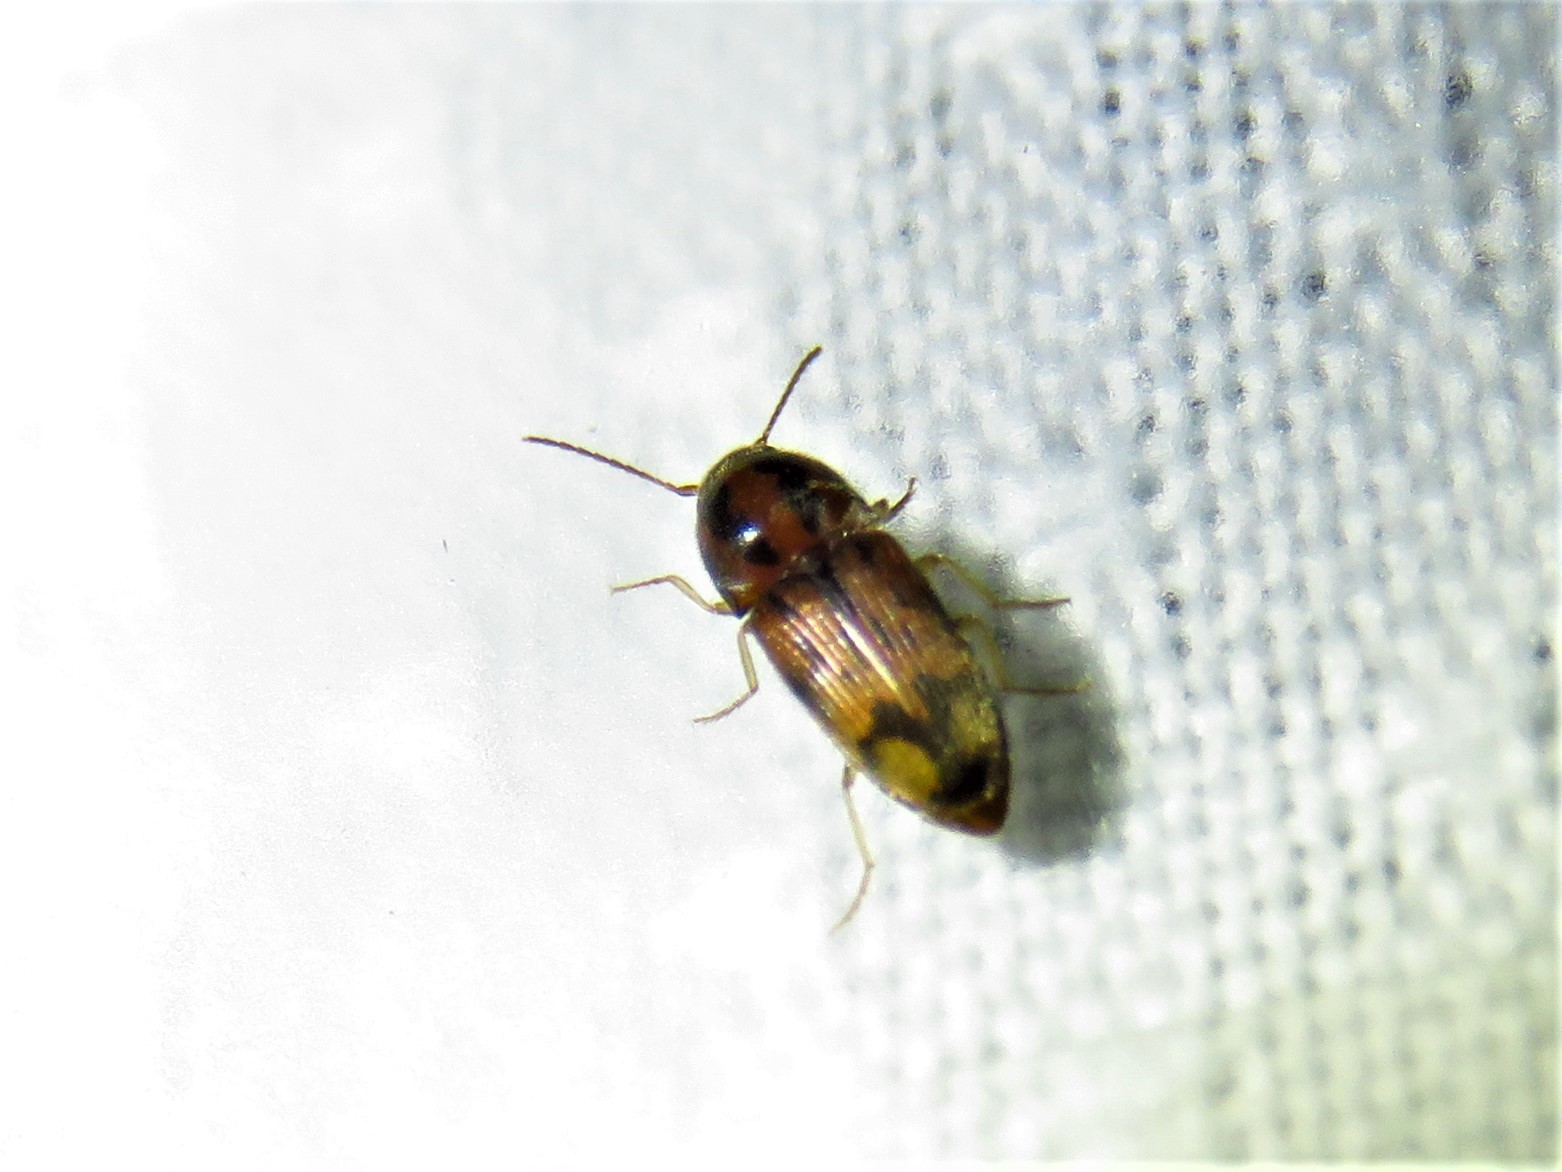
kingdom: Animalia
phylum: Arthropoda
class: Insecta
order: Coleoptera
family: Elateridae
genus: Monocrepidius
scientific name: Monocrepidius bellus
